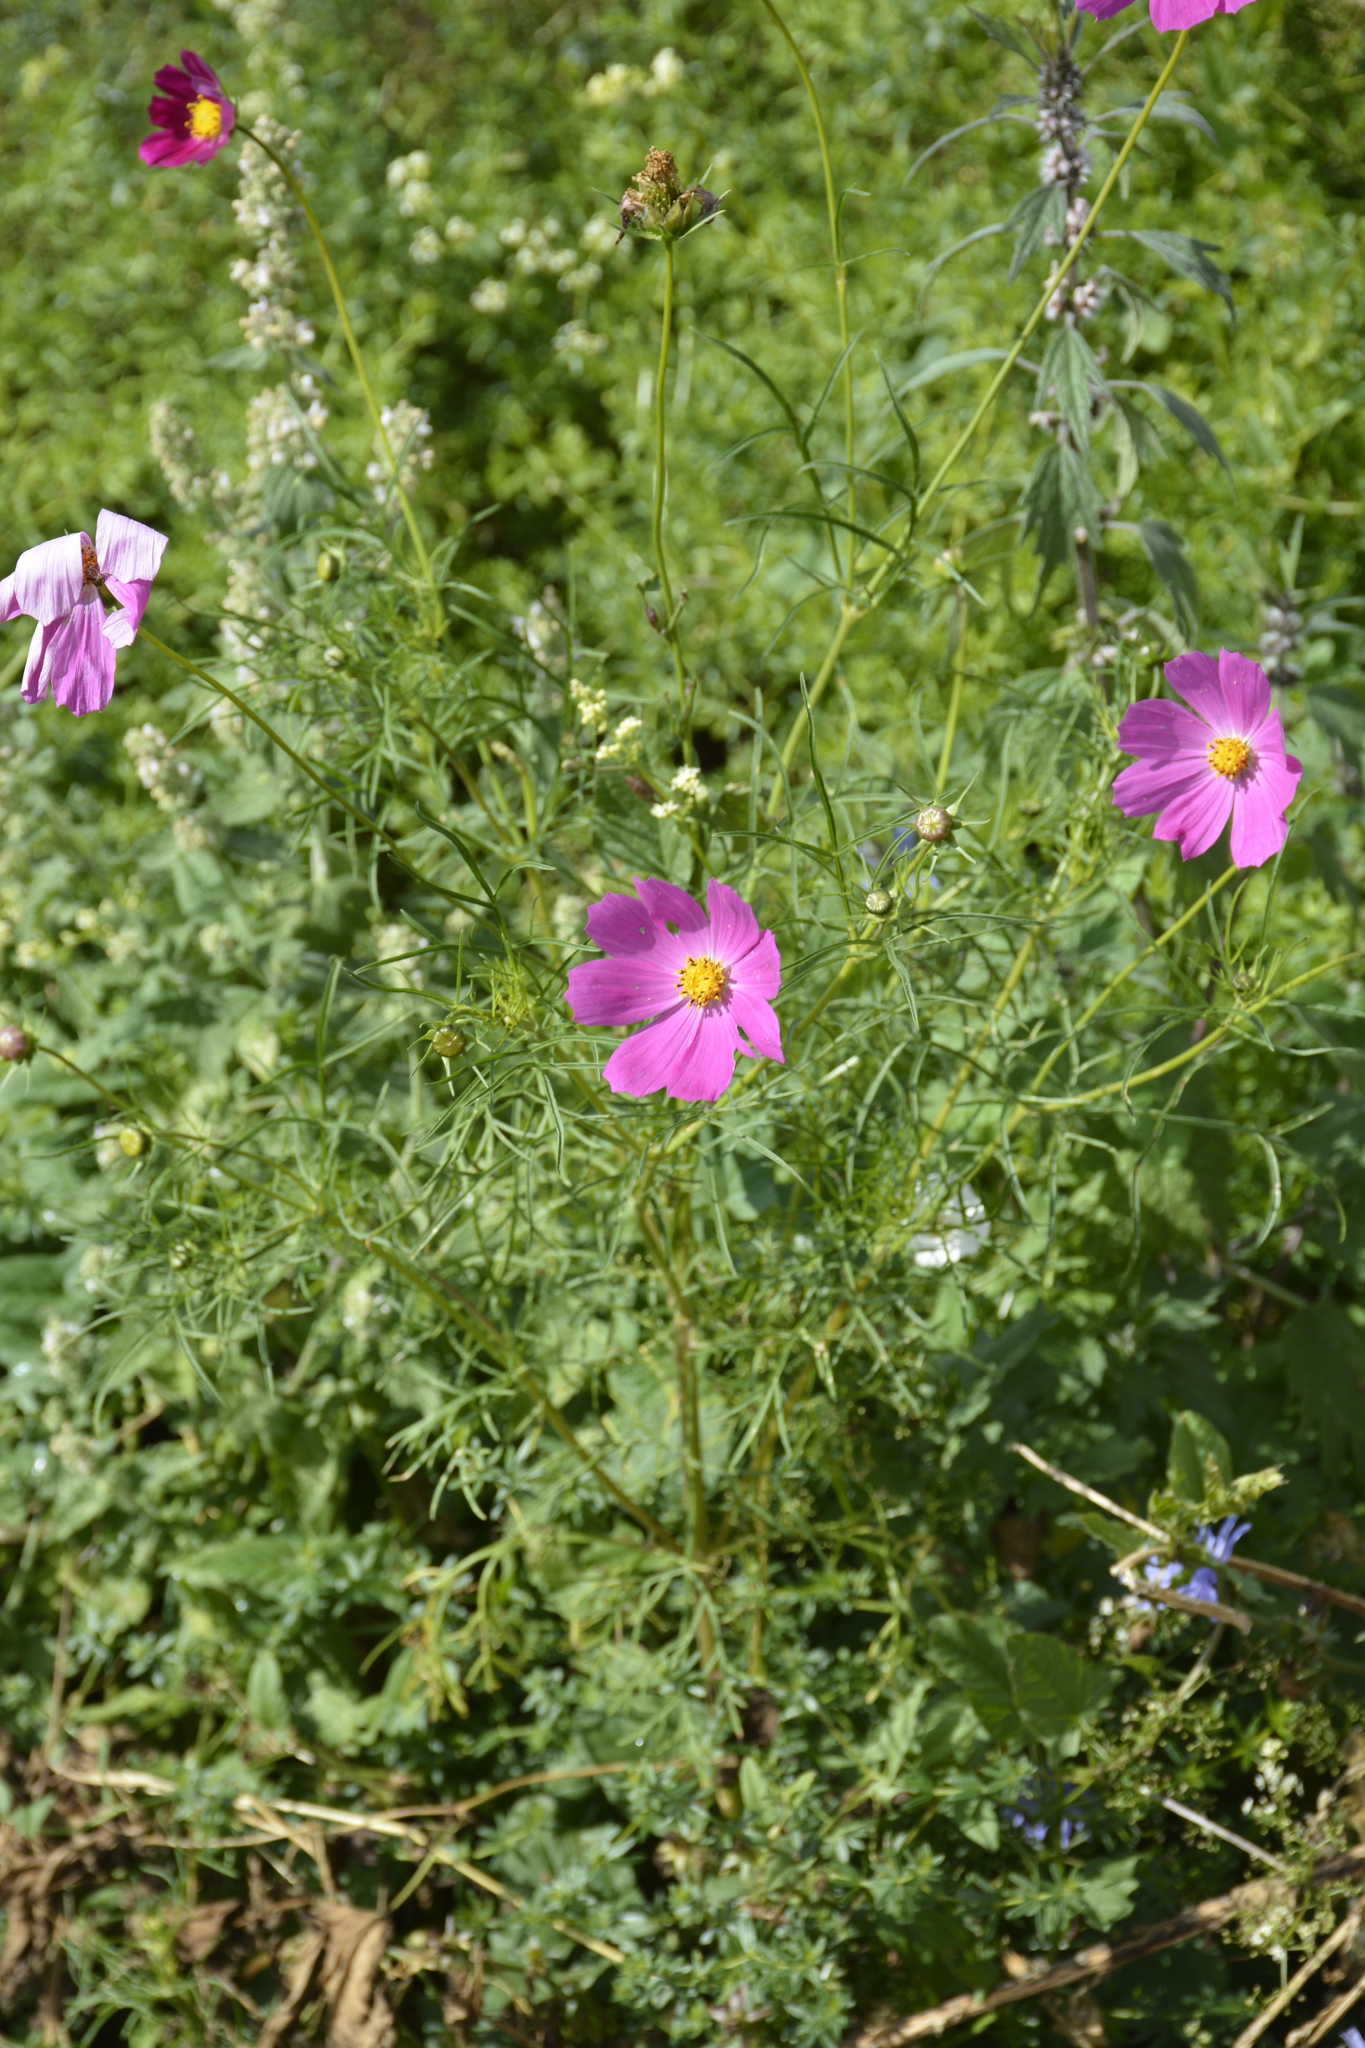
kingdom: Plantae
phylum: Tracheophyta
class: Magnoliopsida
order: Asterales
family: Asteraceae
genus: Cosmos
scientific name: Cosmos bipinnatus
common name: Garden cosmos
